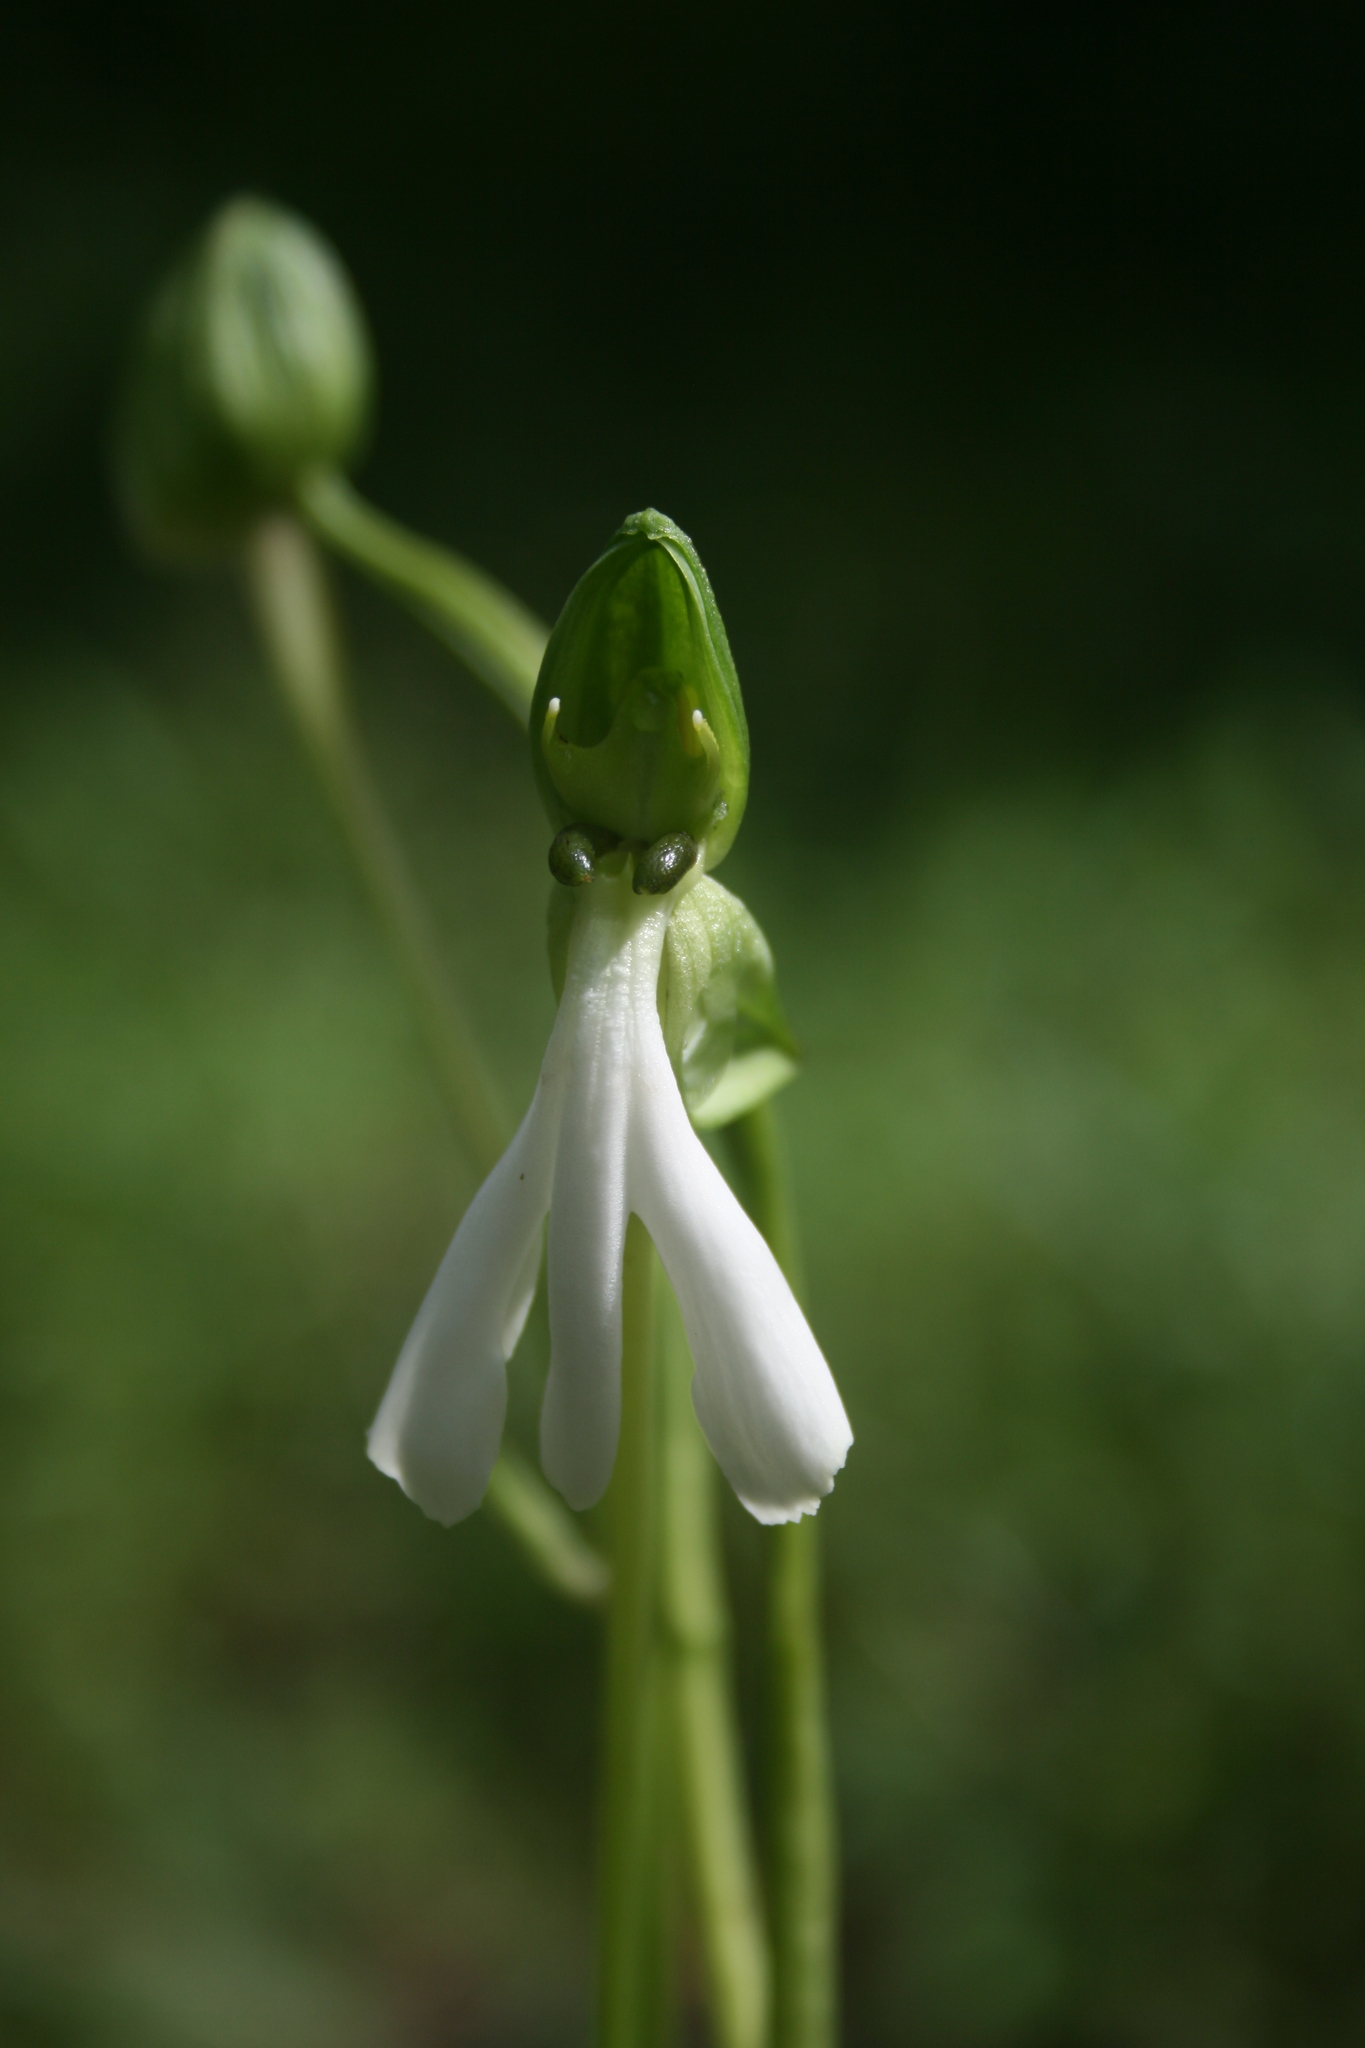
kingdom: Plantae
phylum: Tracheophyta
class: Liliopsida
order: Asparagales
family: Orchidaceae
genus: Habenaria
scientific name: Habenaria longicorniculata
